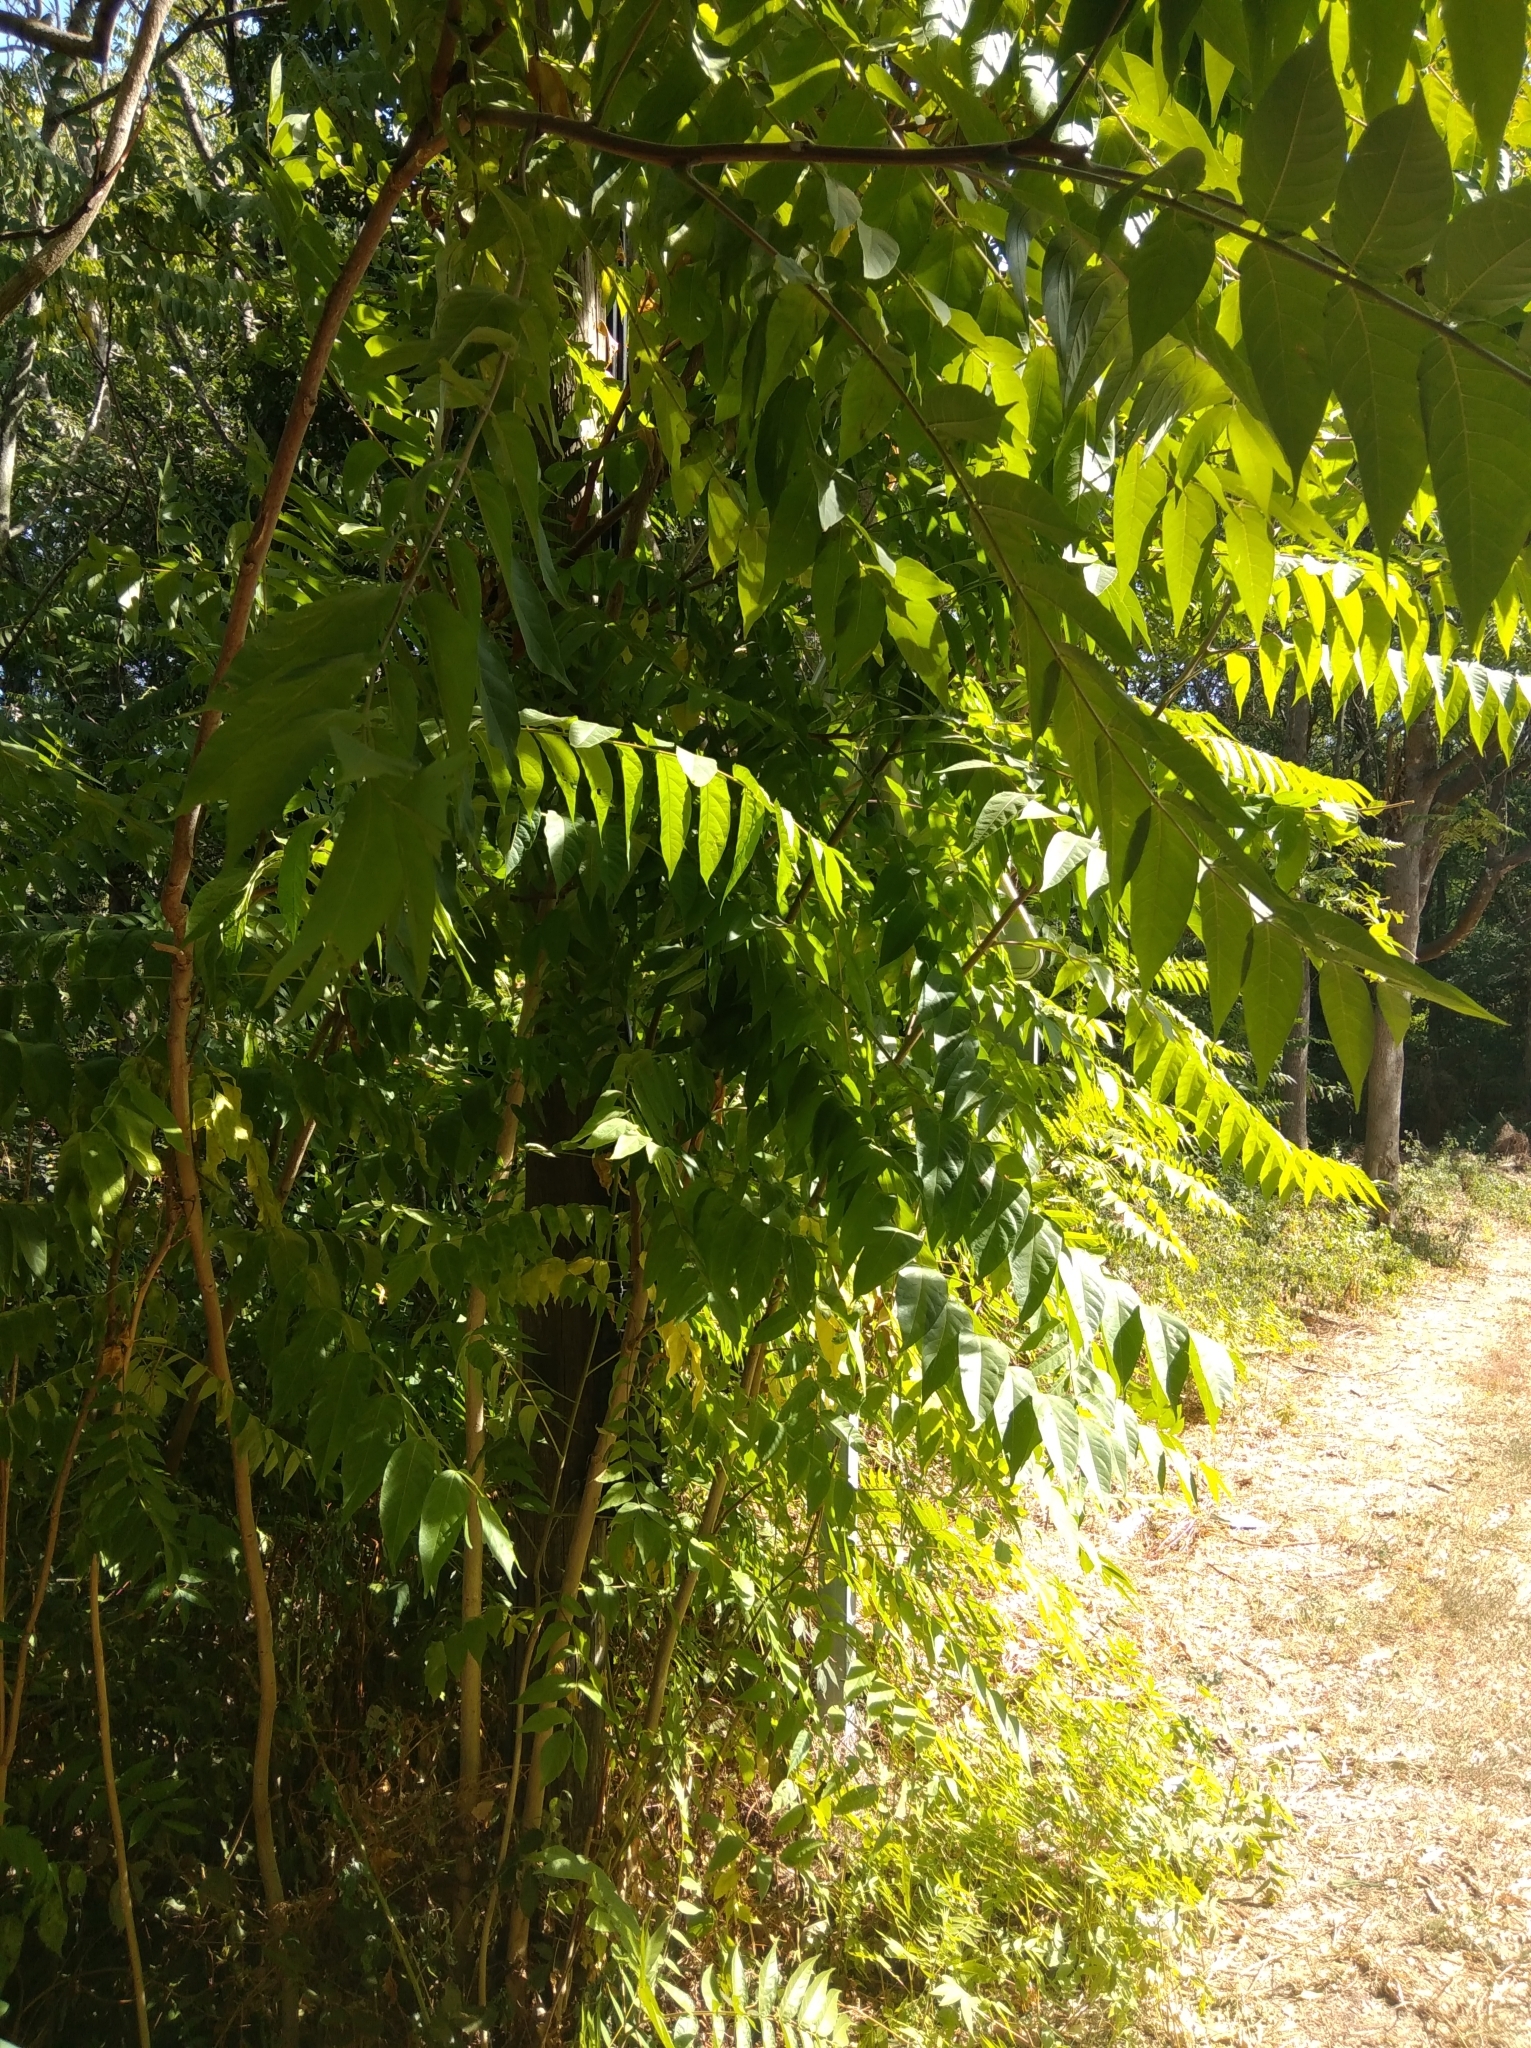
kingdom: Plantae
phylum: Tracheophyta
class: Magnoliopsida
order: Sapindales
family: Simaroubaceae
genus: Ailanthus
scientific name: Ailanthus altissima
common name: Tree-of-heaven
